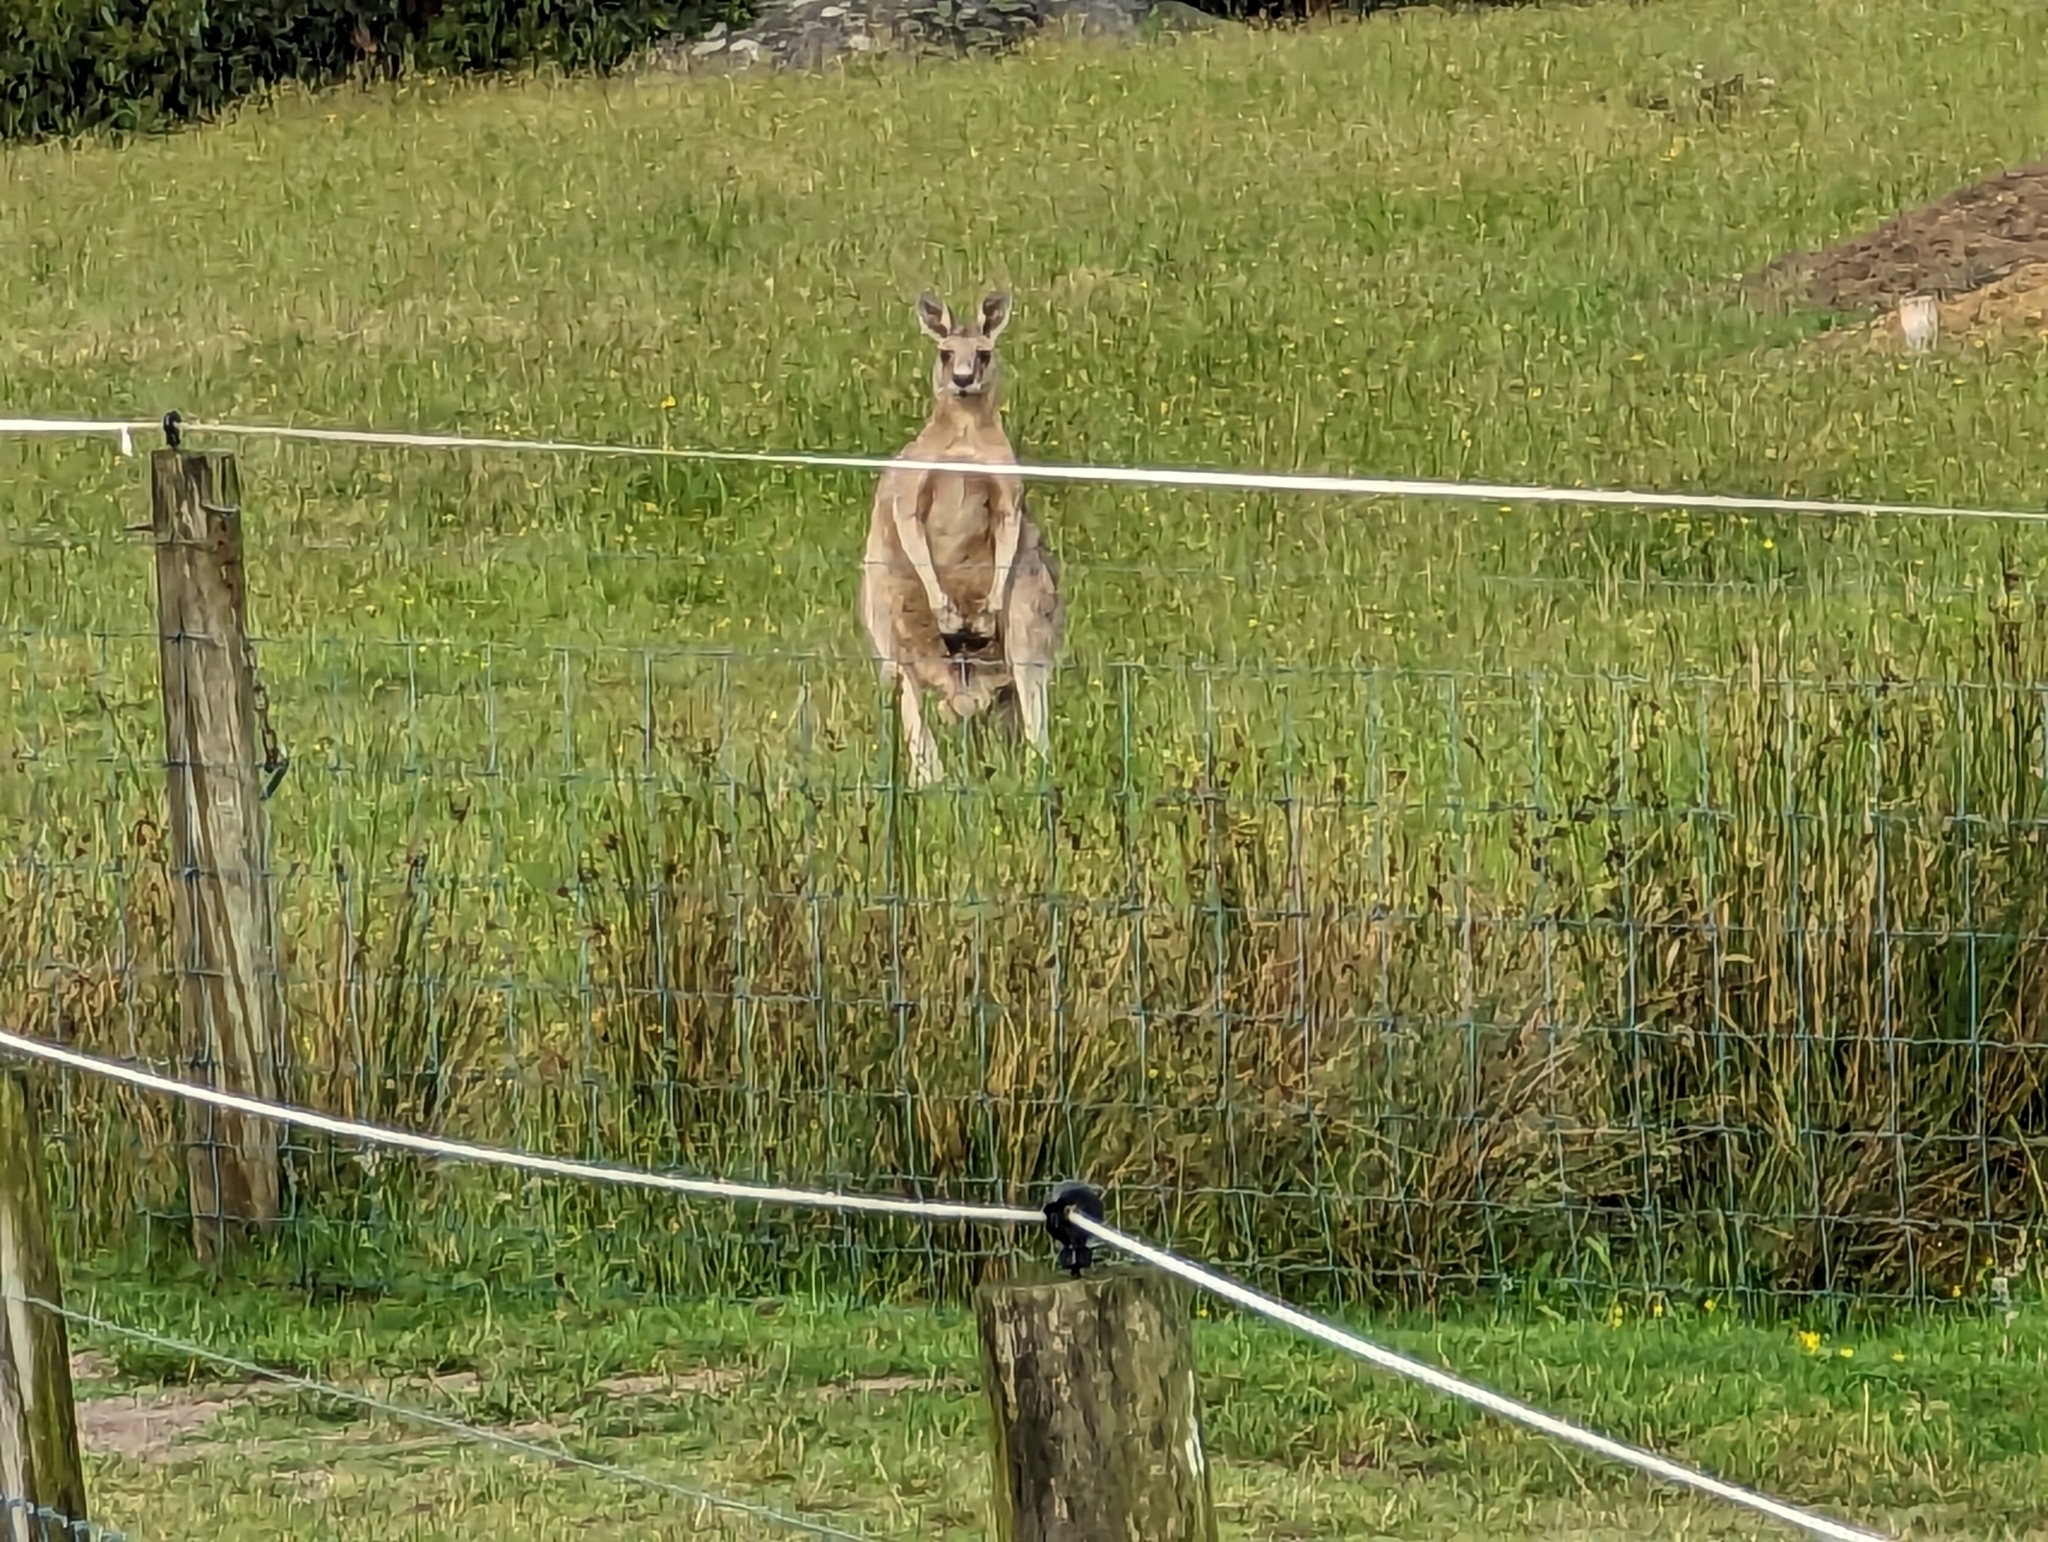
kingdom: Animalia
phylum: Chordata
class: Mammalia
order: Diprotodontia
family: Macropodidae
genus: Macropus
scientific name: Macropus giganteus
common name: Eastern grey kangaroo
